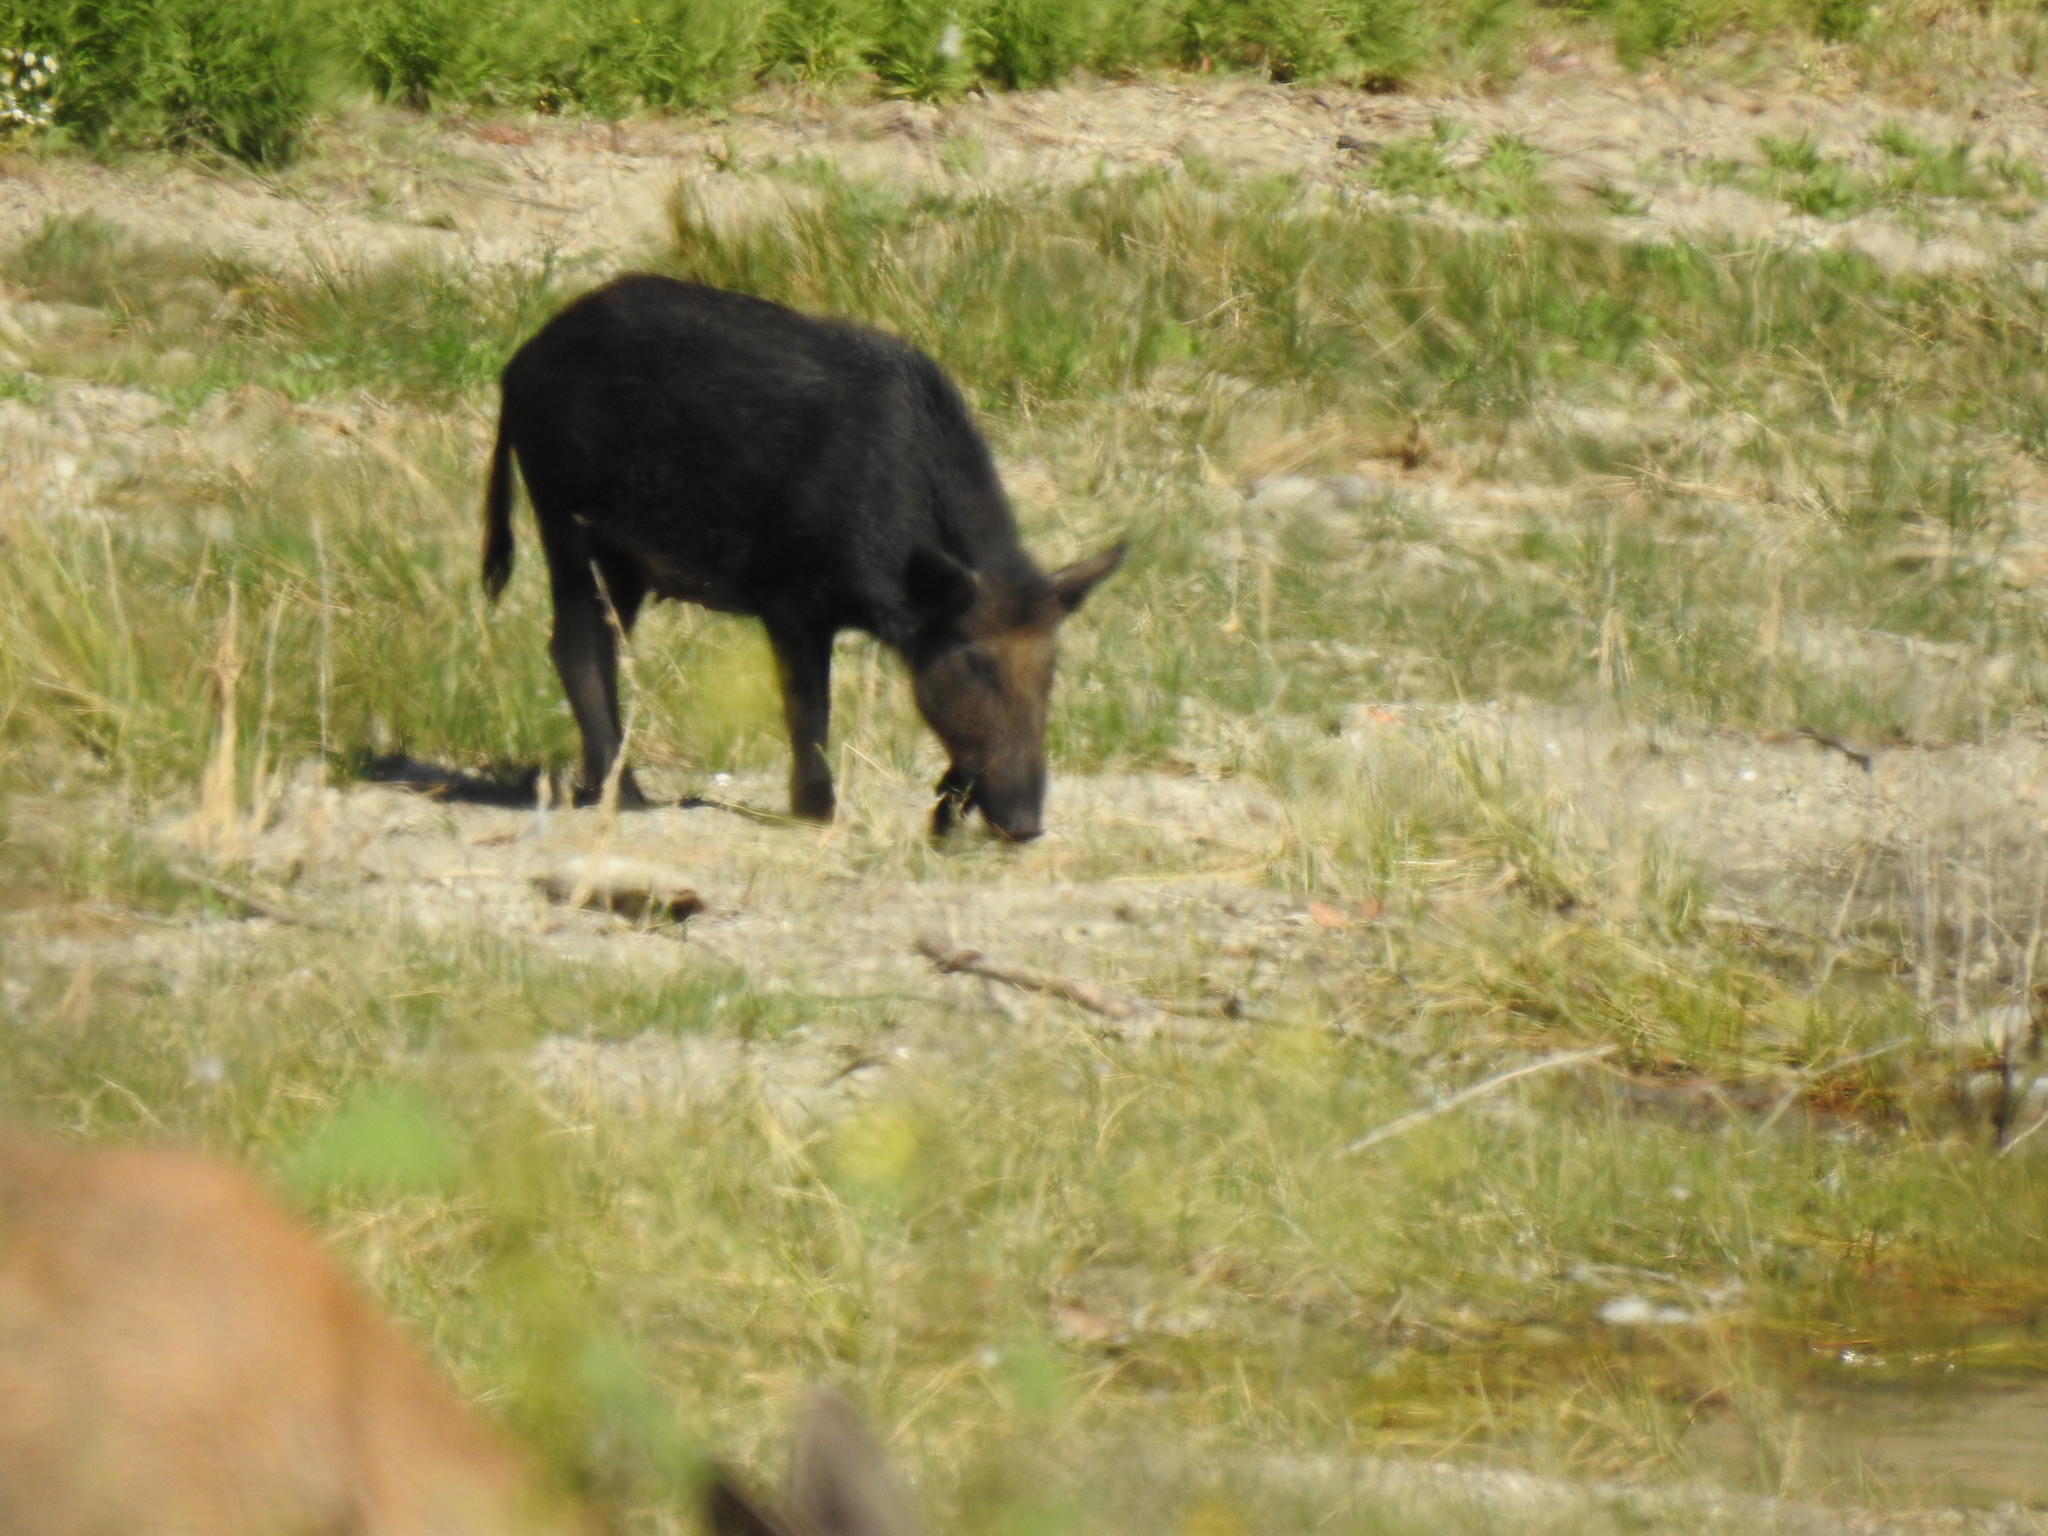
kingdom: Animalia
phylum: Chordata
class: Mammalia
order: Artiodactyla
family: Suidae
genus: Sus
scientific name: Sus scrofa
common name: Wild boar
